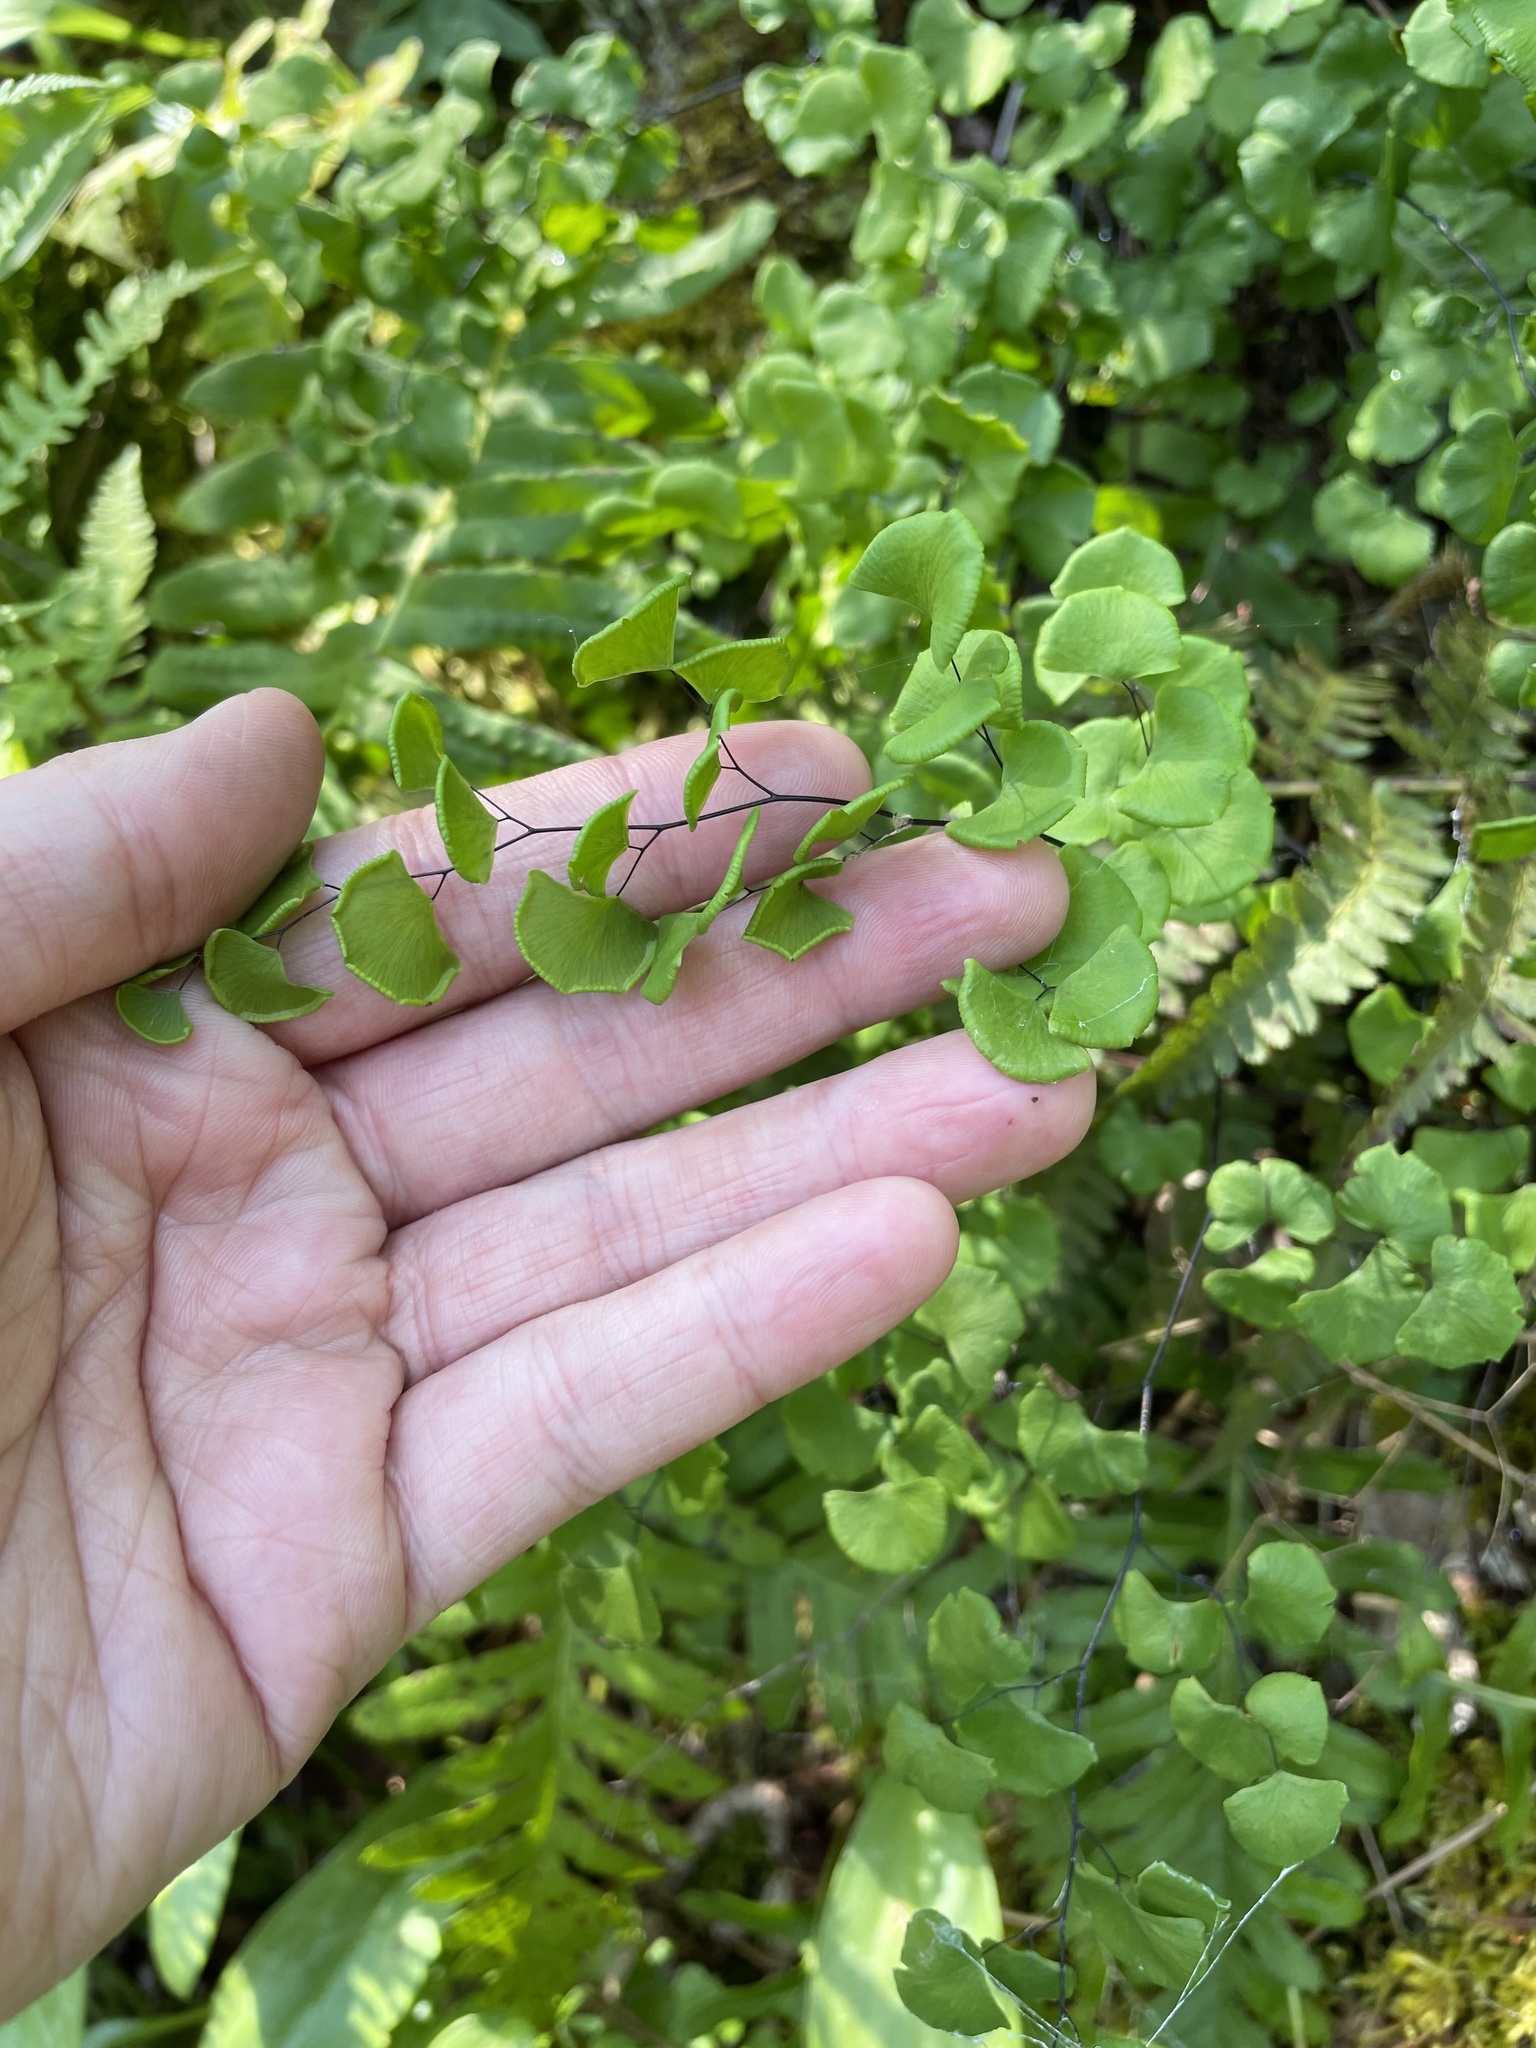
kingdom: Plantae
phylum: Tracheophyta
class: Polypodiopsida
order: Polypodiales
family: Pteridaceae
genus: Adiantum
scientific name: Adiantum jordanii
